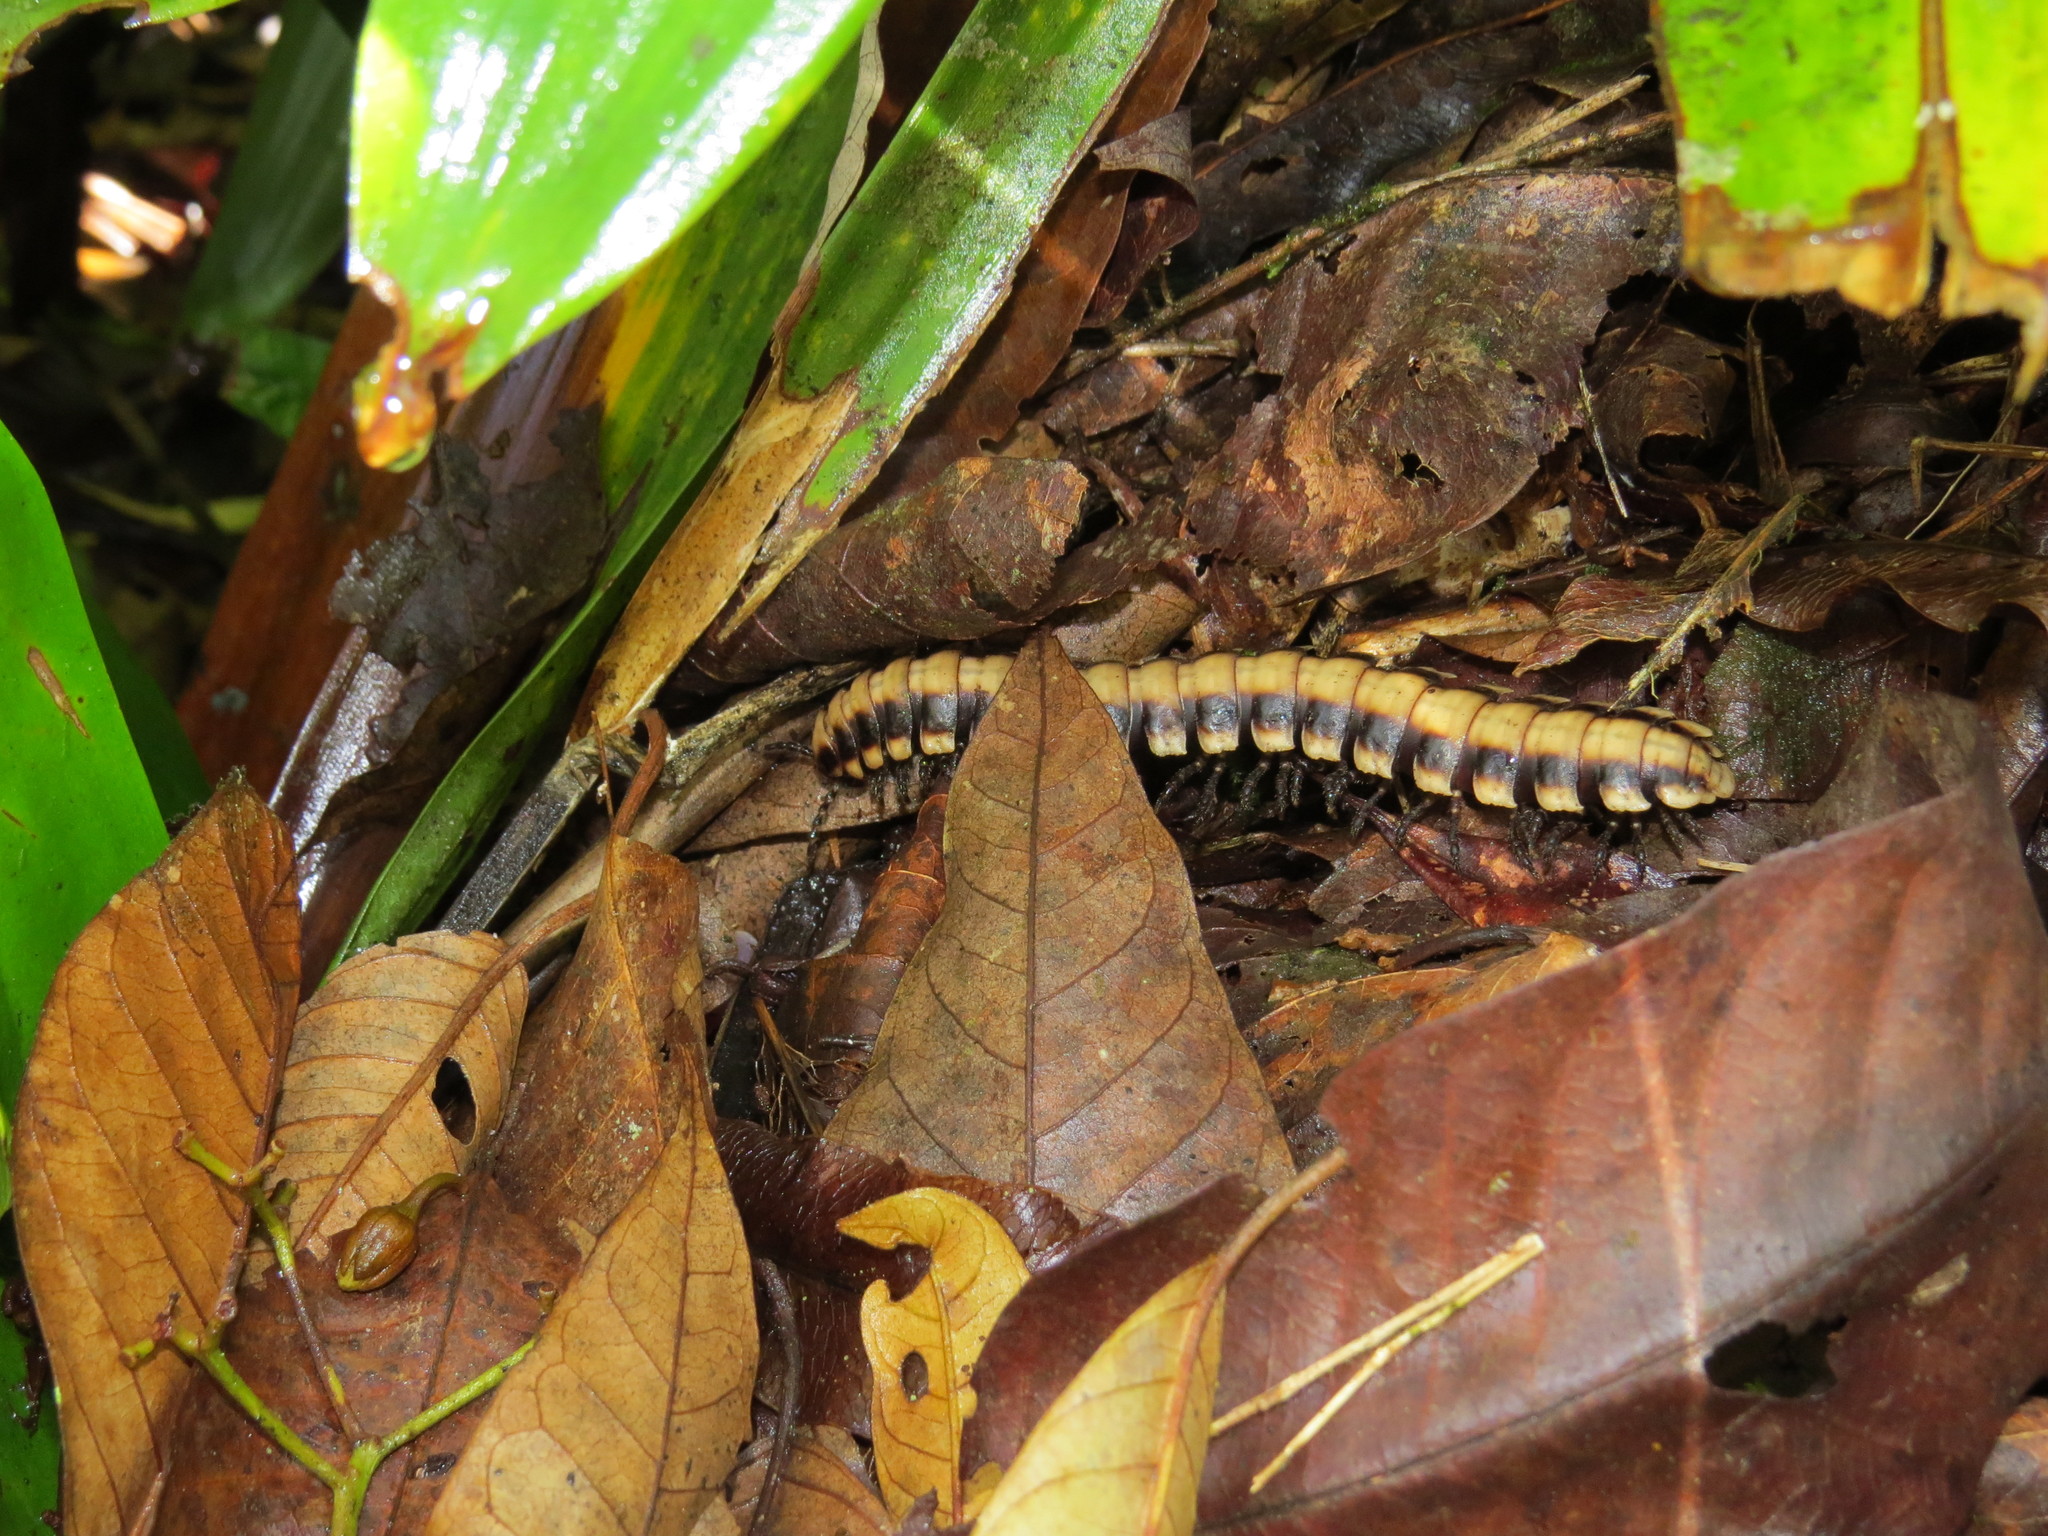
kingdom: Animalia
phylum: Arthropoda
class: Diplopoda
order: Polydesmida
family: Platyrhacidae
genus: Nyssodesmus
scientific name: Nyssodesmus python
